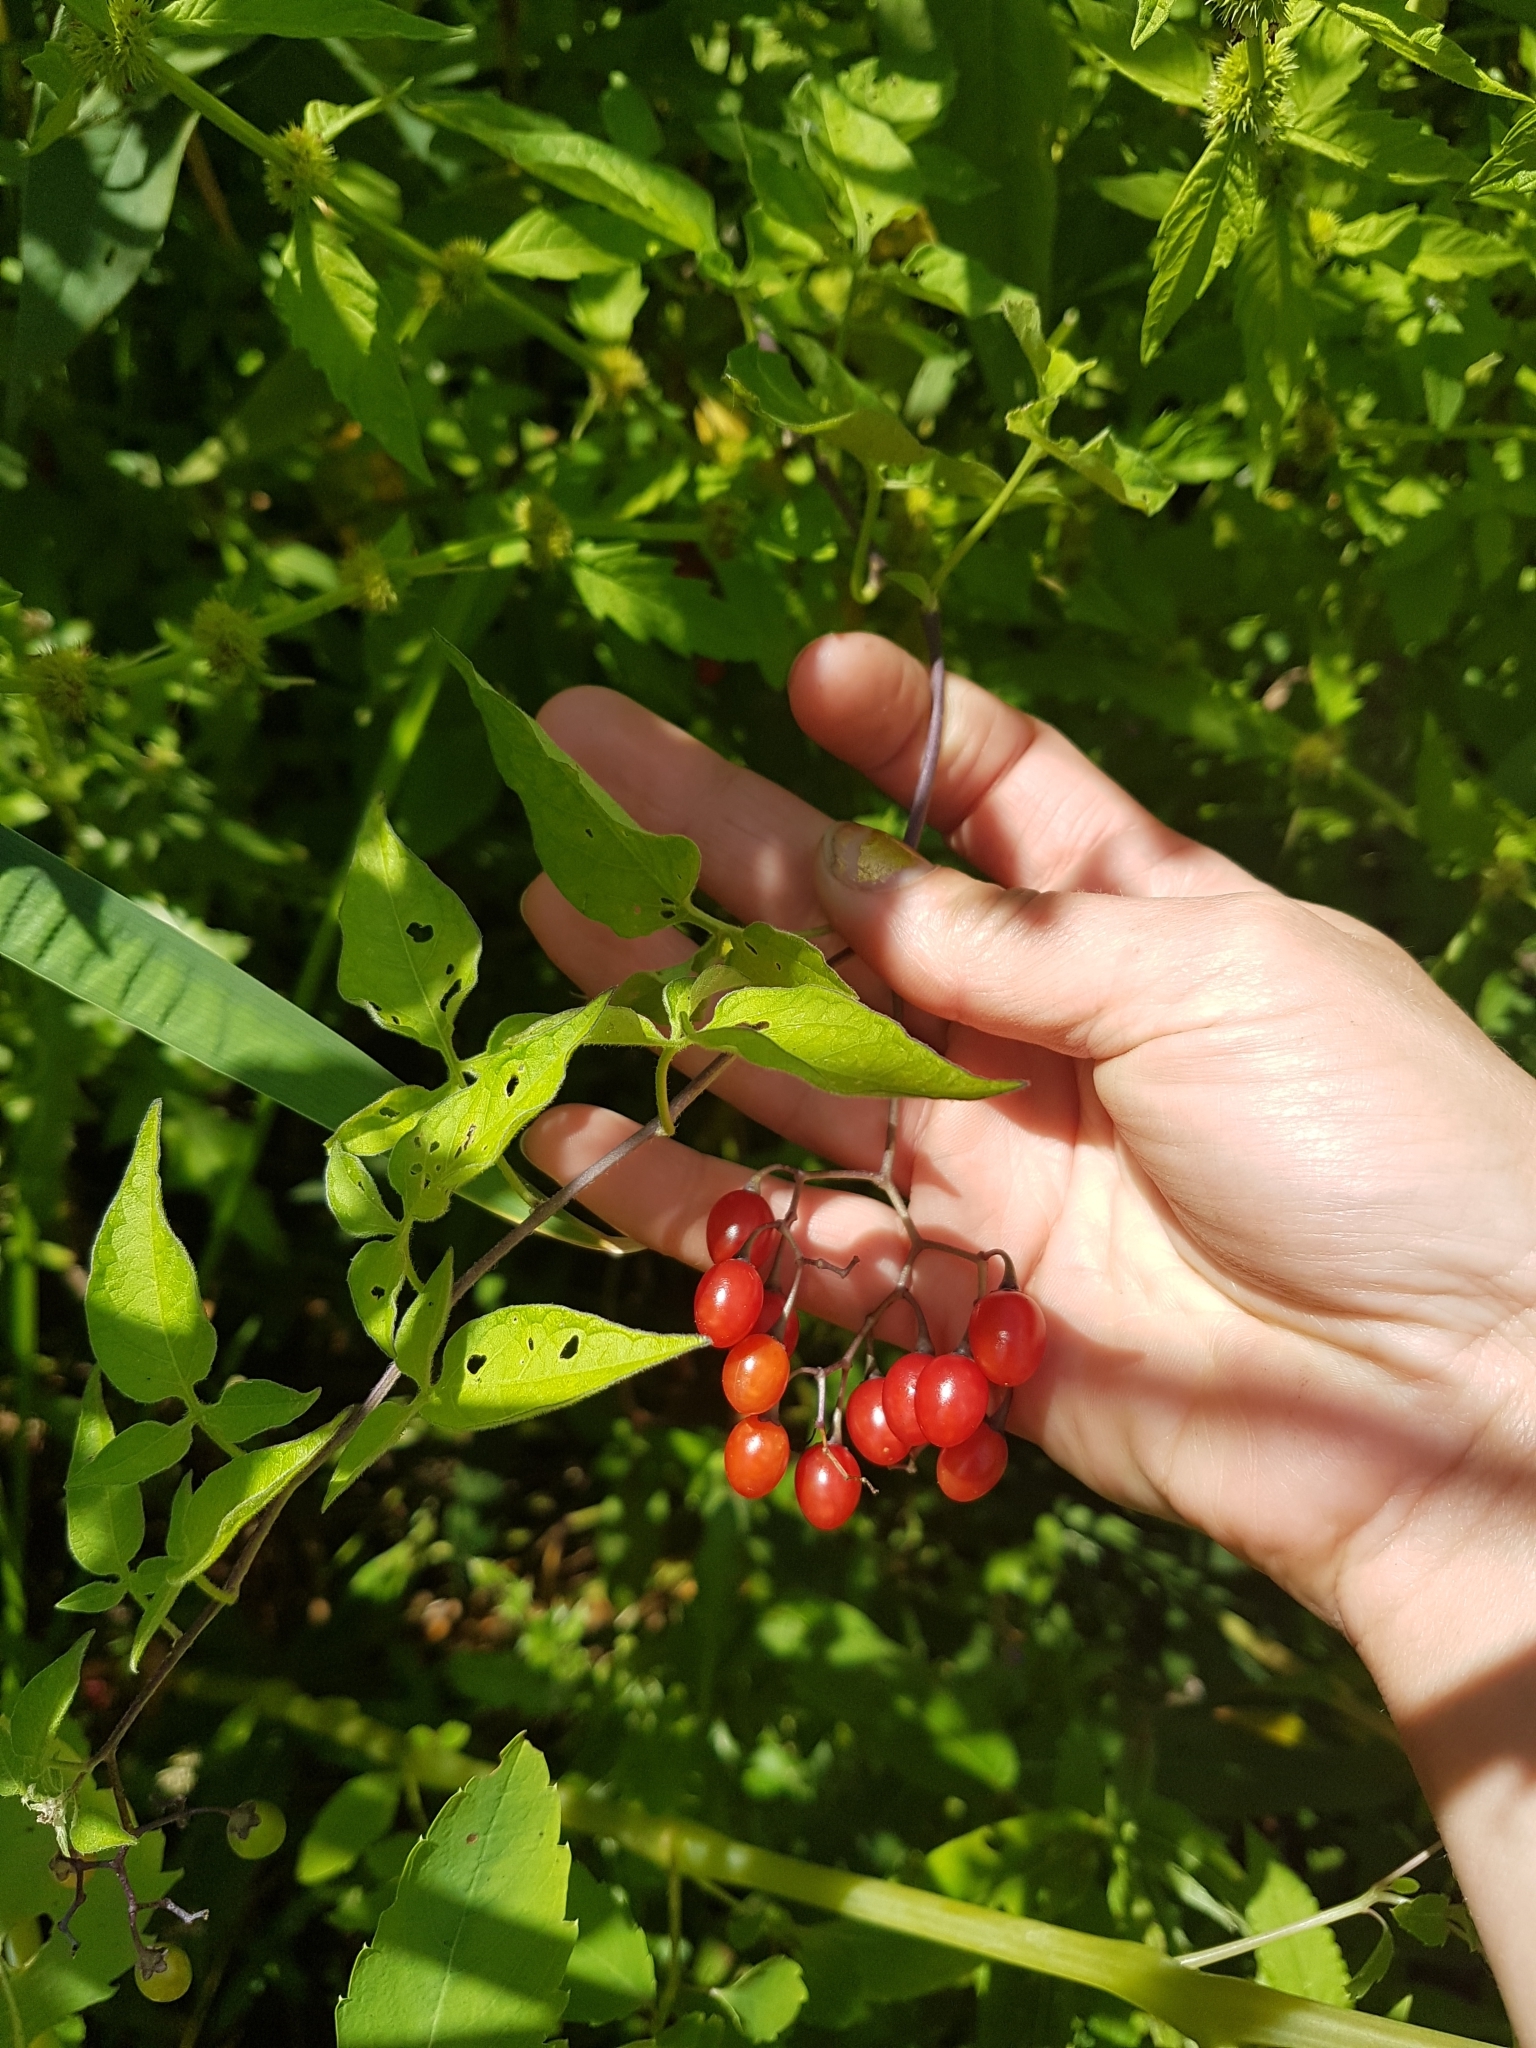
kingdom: Plantae
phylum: Tracheophyta
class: Magnoliopsida
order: Solanales
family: Solanaceae
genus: Solanum
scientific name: Solanum dulcamara
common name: Climbing nightshade
